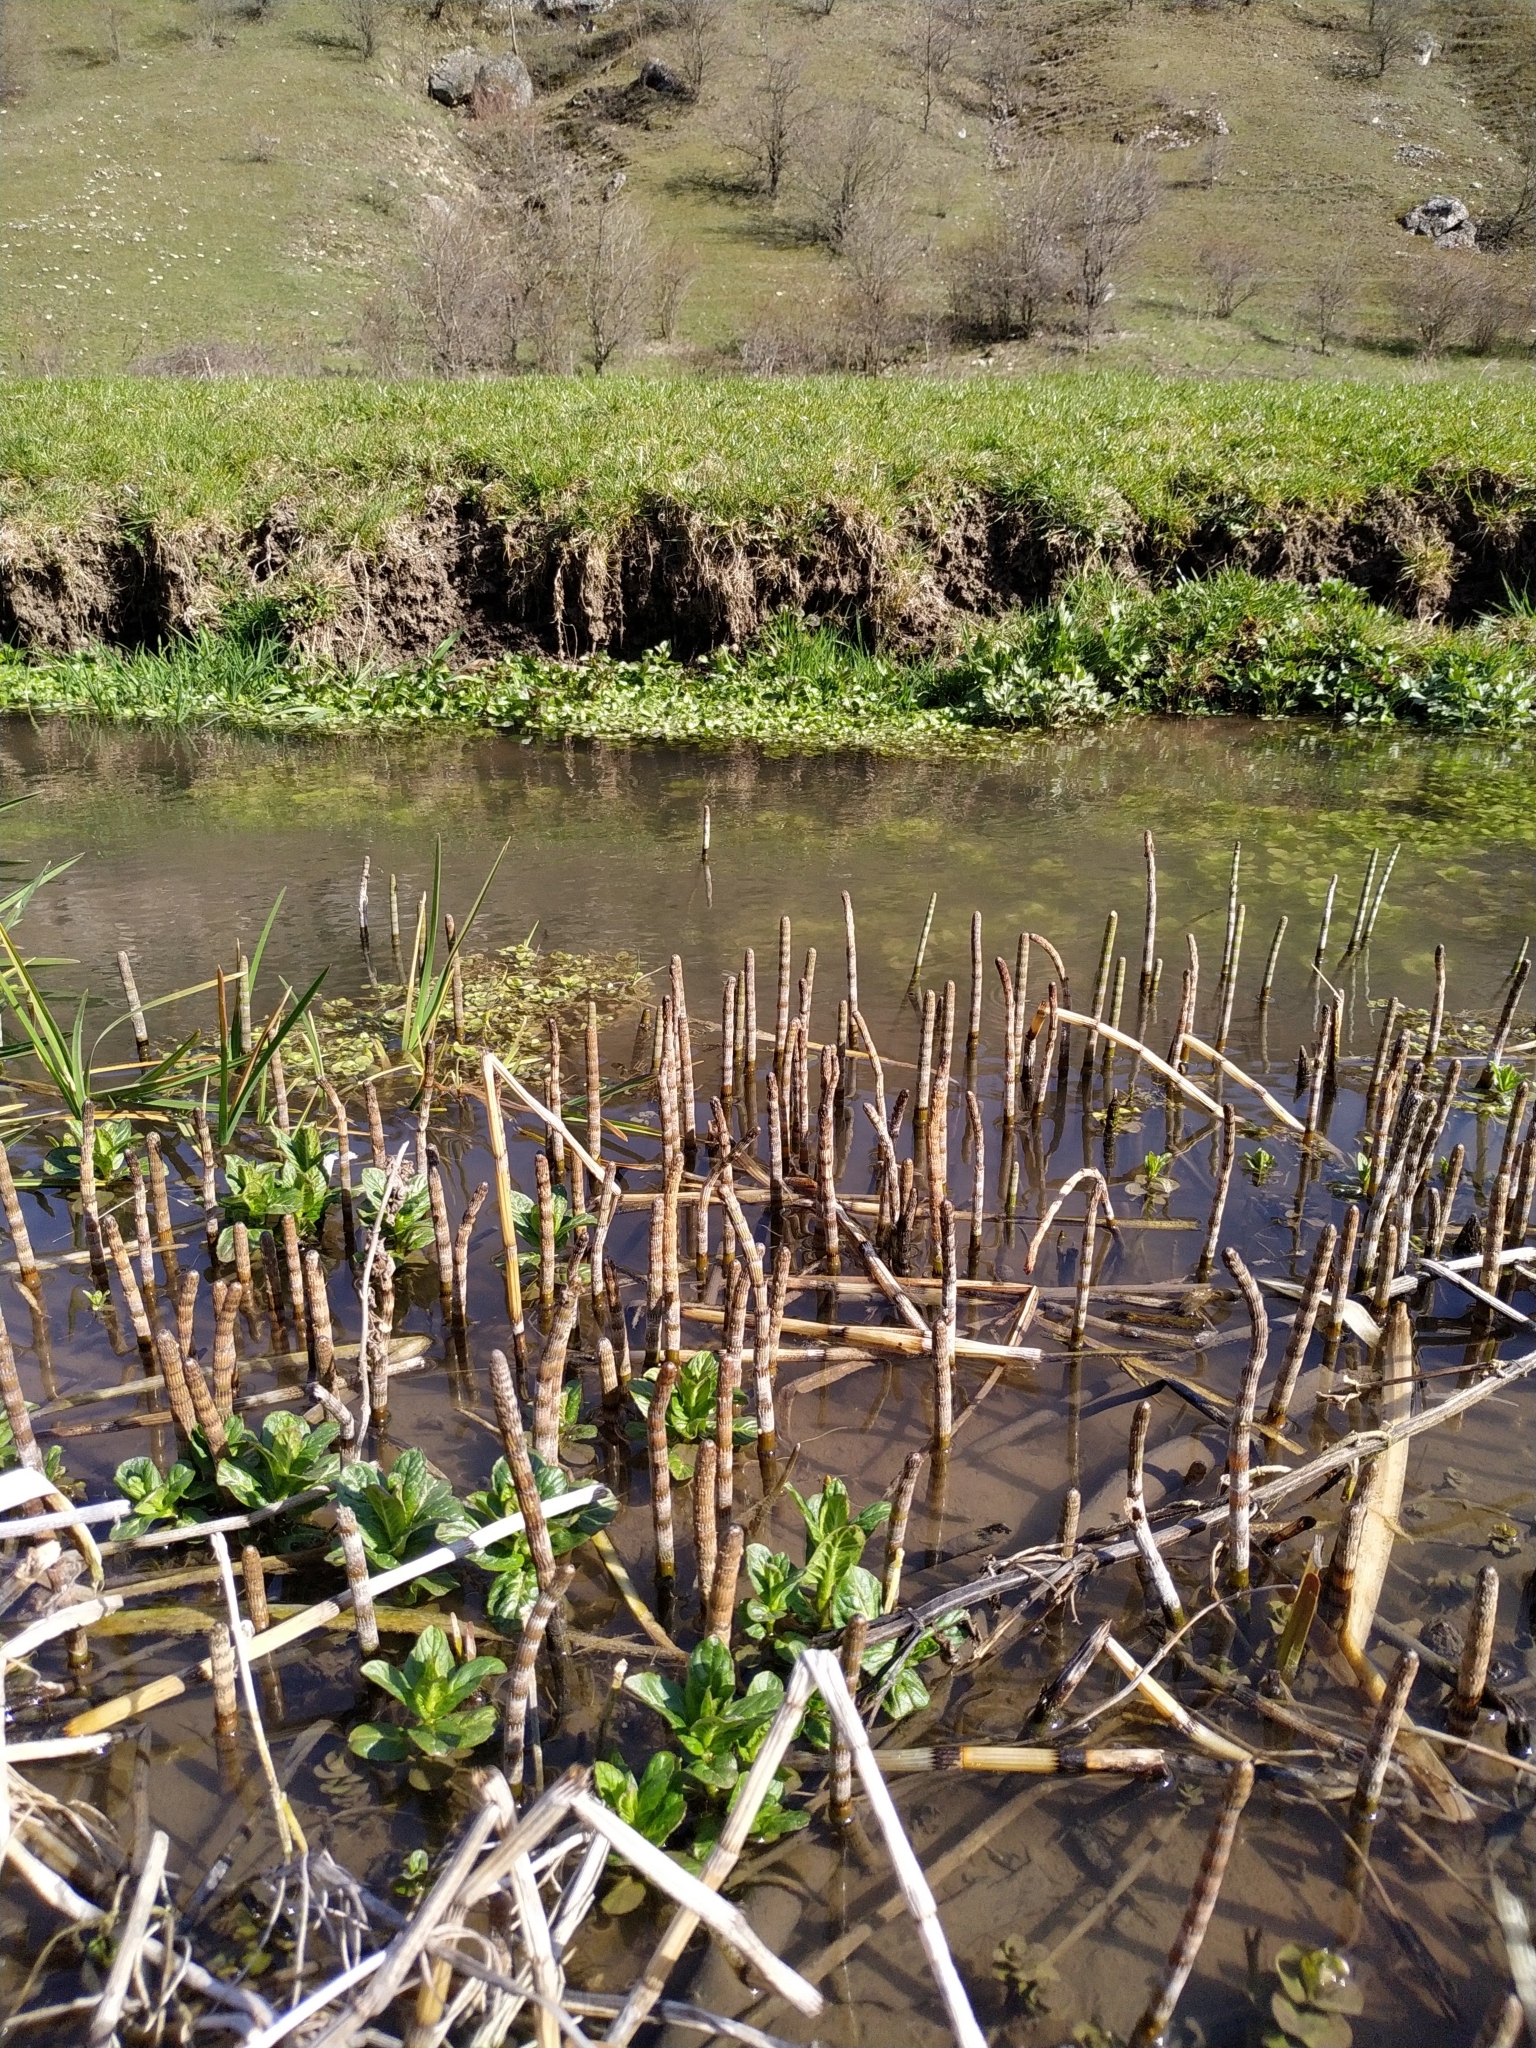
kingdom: Plantae
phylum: Tracheophyta
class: Polypodiopsida
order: Equisetales
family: Equisetaceae
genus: Equisetum
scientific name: Equisetum fluviatile
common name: Water horsetail
